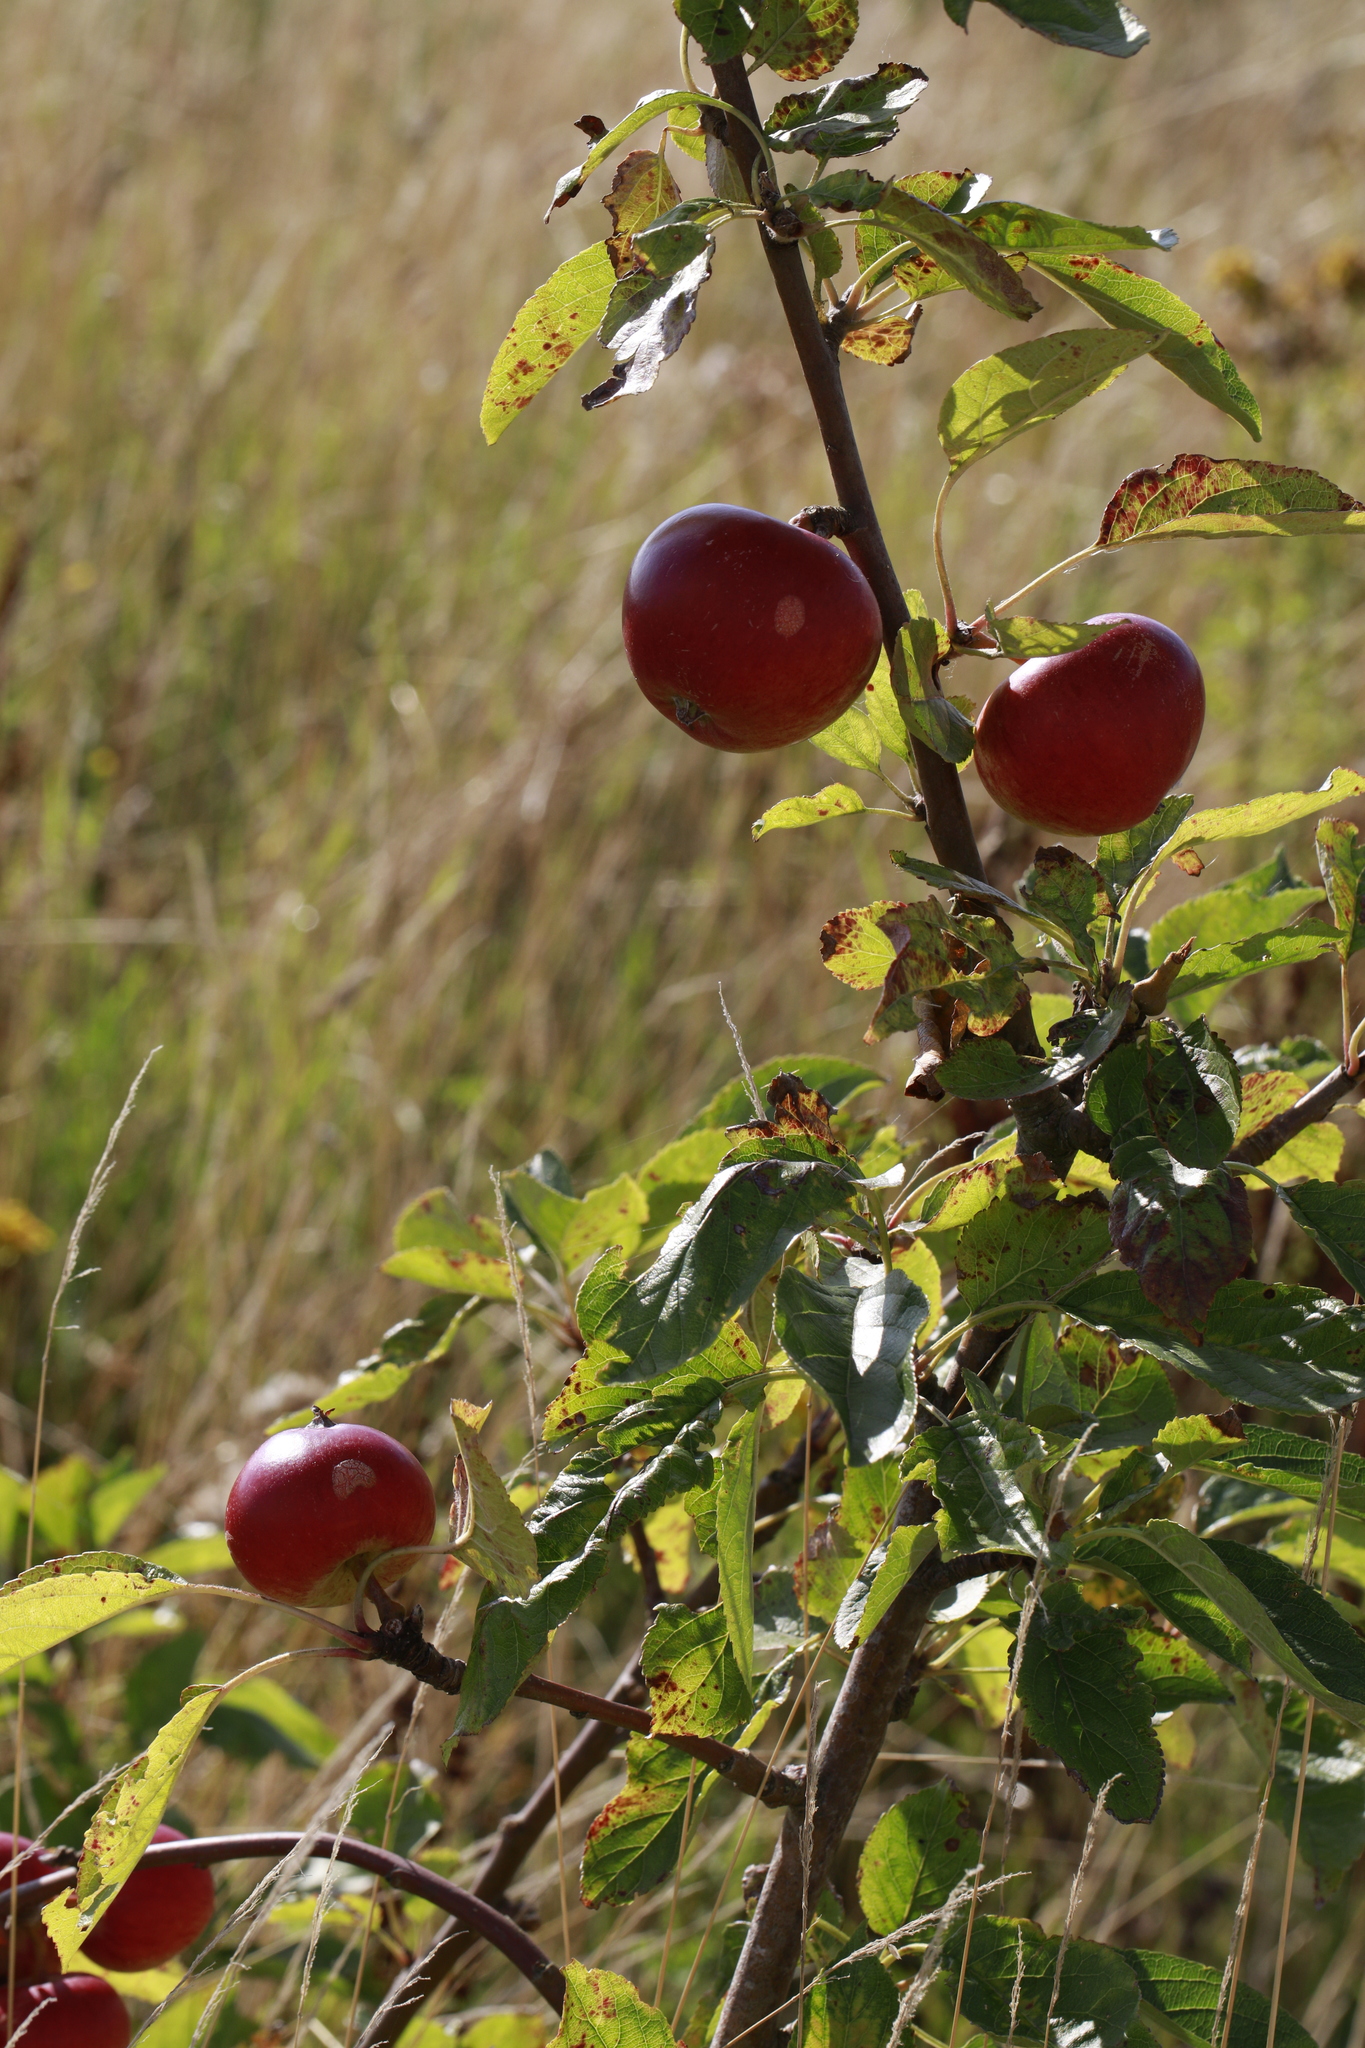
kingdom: Plantae
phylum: Tracheophyta
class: Magnoliopsida
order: Rosales
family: Rosaceae
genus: Malus
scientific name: Malus domestica
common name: Apple
